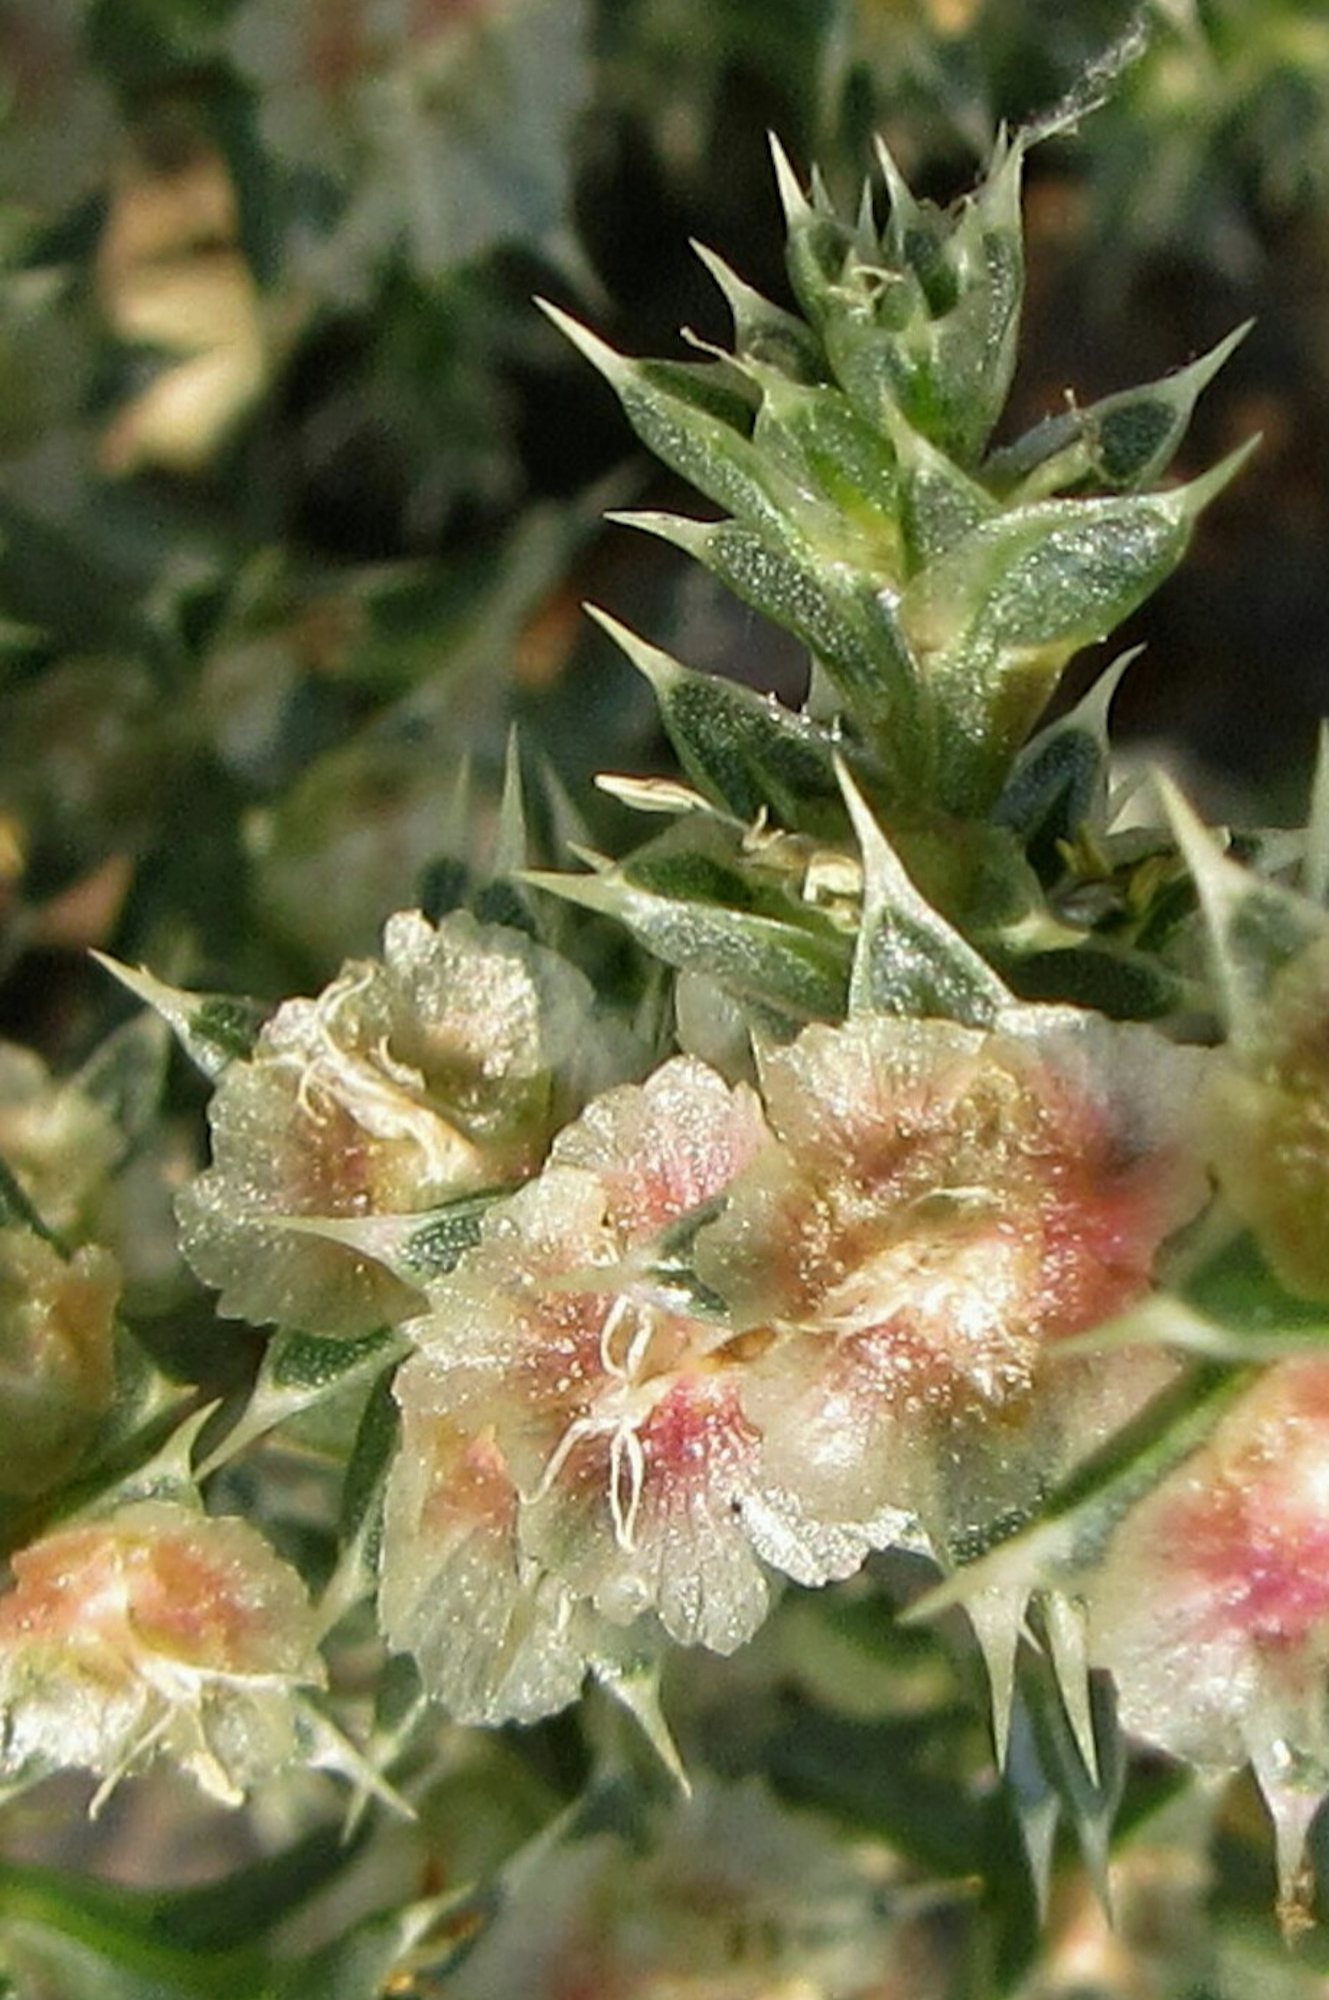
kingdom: Plantae
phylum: Tracheophyta
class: Magnoliopsida
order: Caryophyllales
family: Amaranthaceae
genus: Salsola
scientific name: Salsola tragus
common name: Prickly russian thistle
